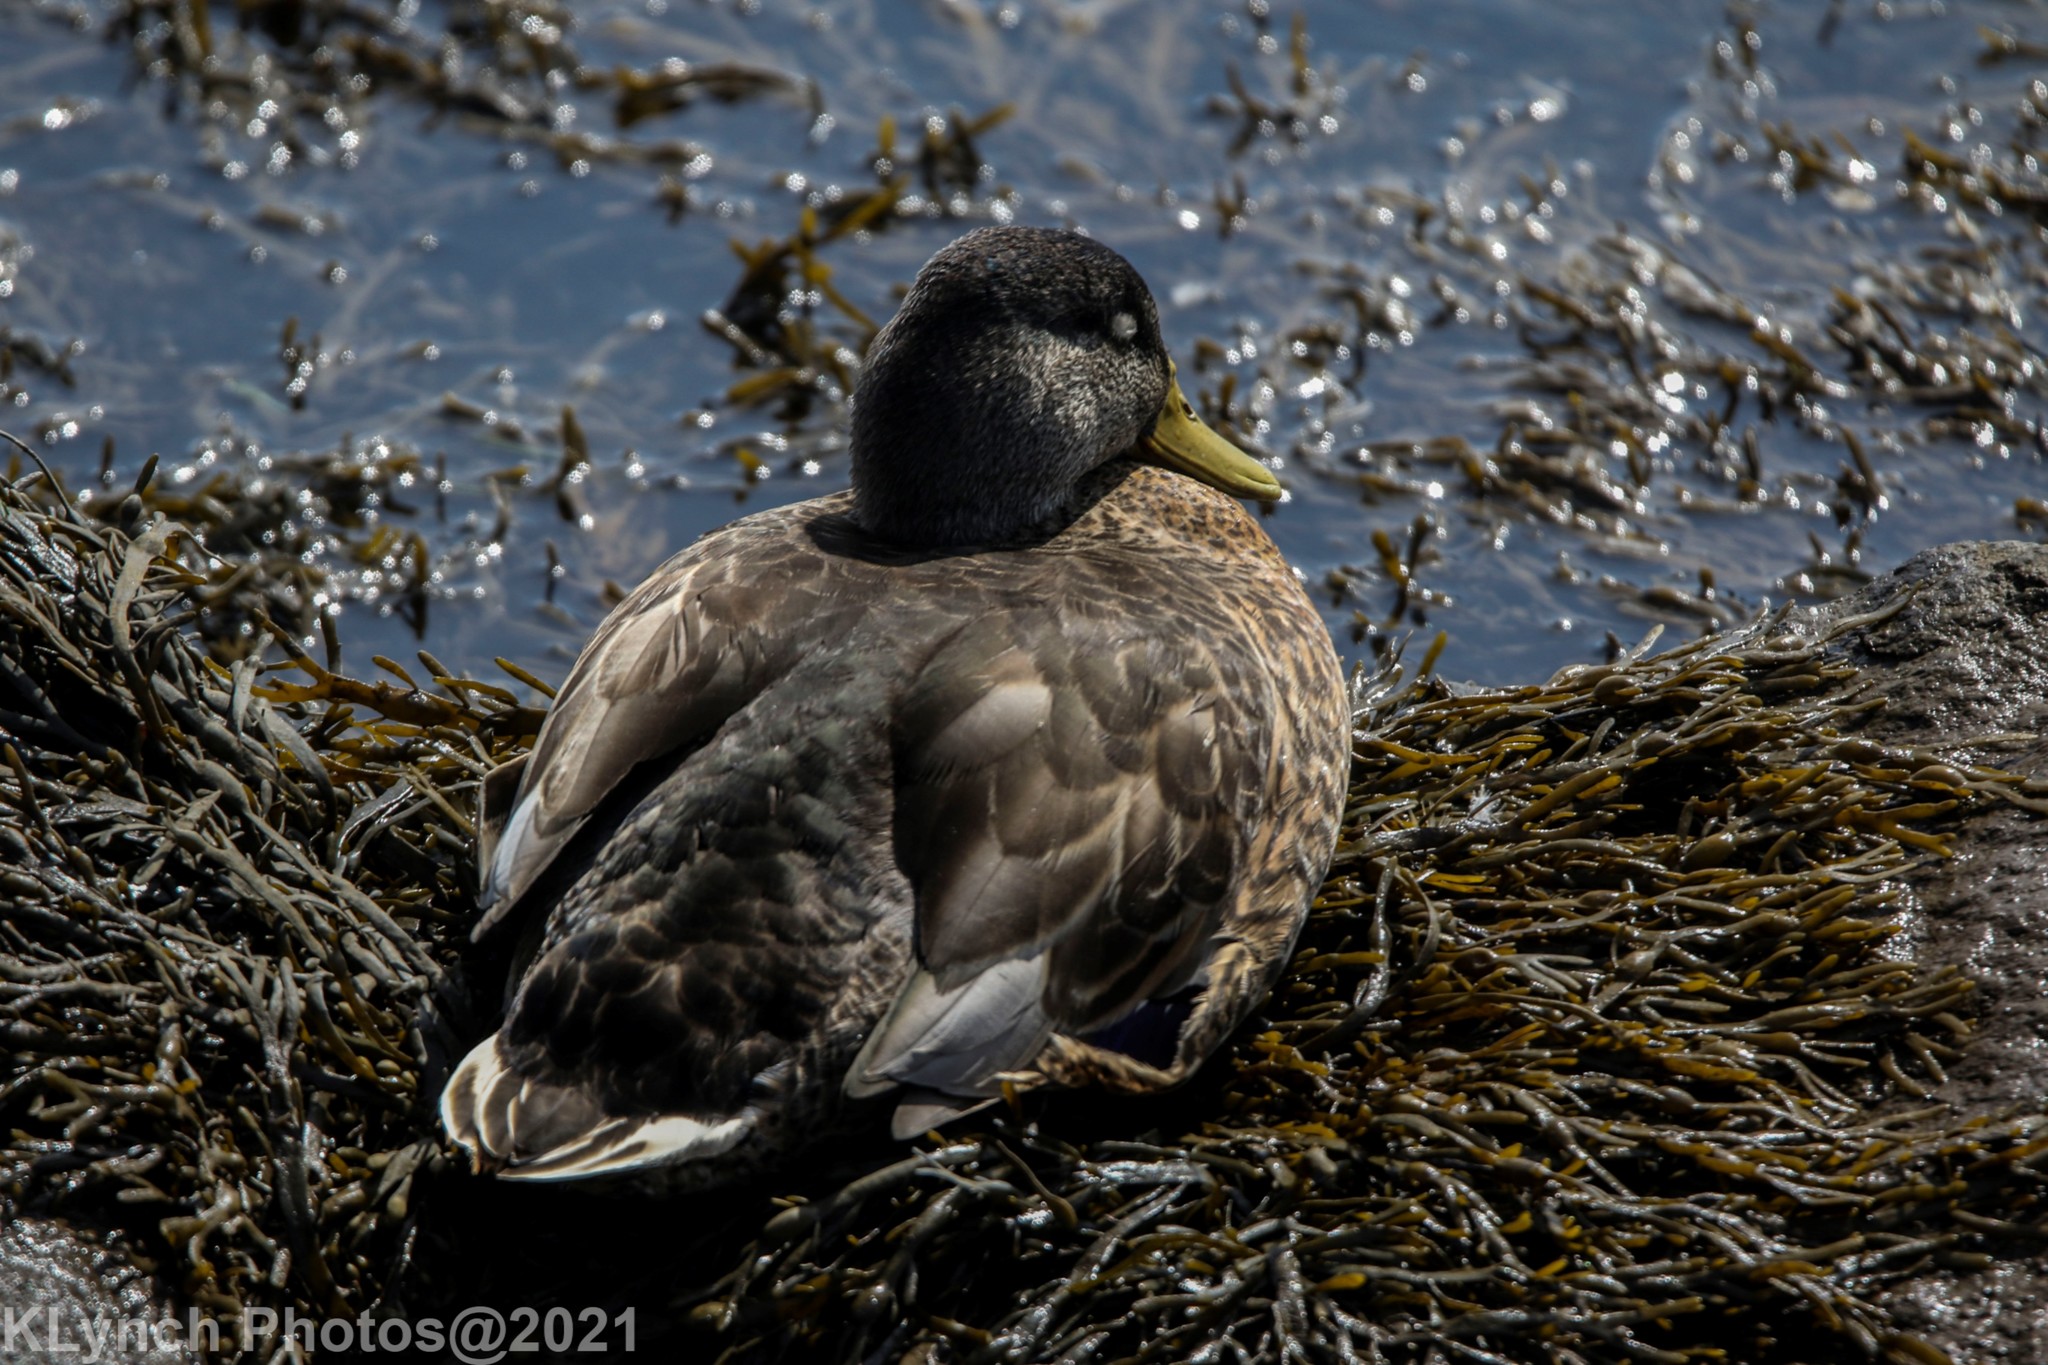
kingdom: Animalia
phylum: Chordata
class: Aves
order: Anseriformes
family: Anatidae
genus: Anas
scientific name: Anas platyrhynchos
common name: Mallard
